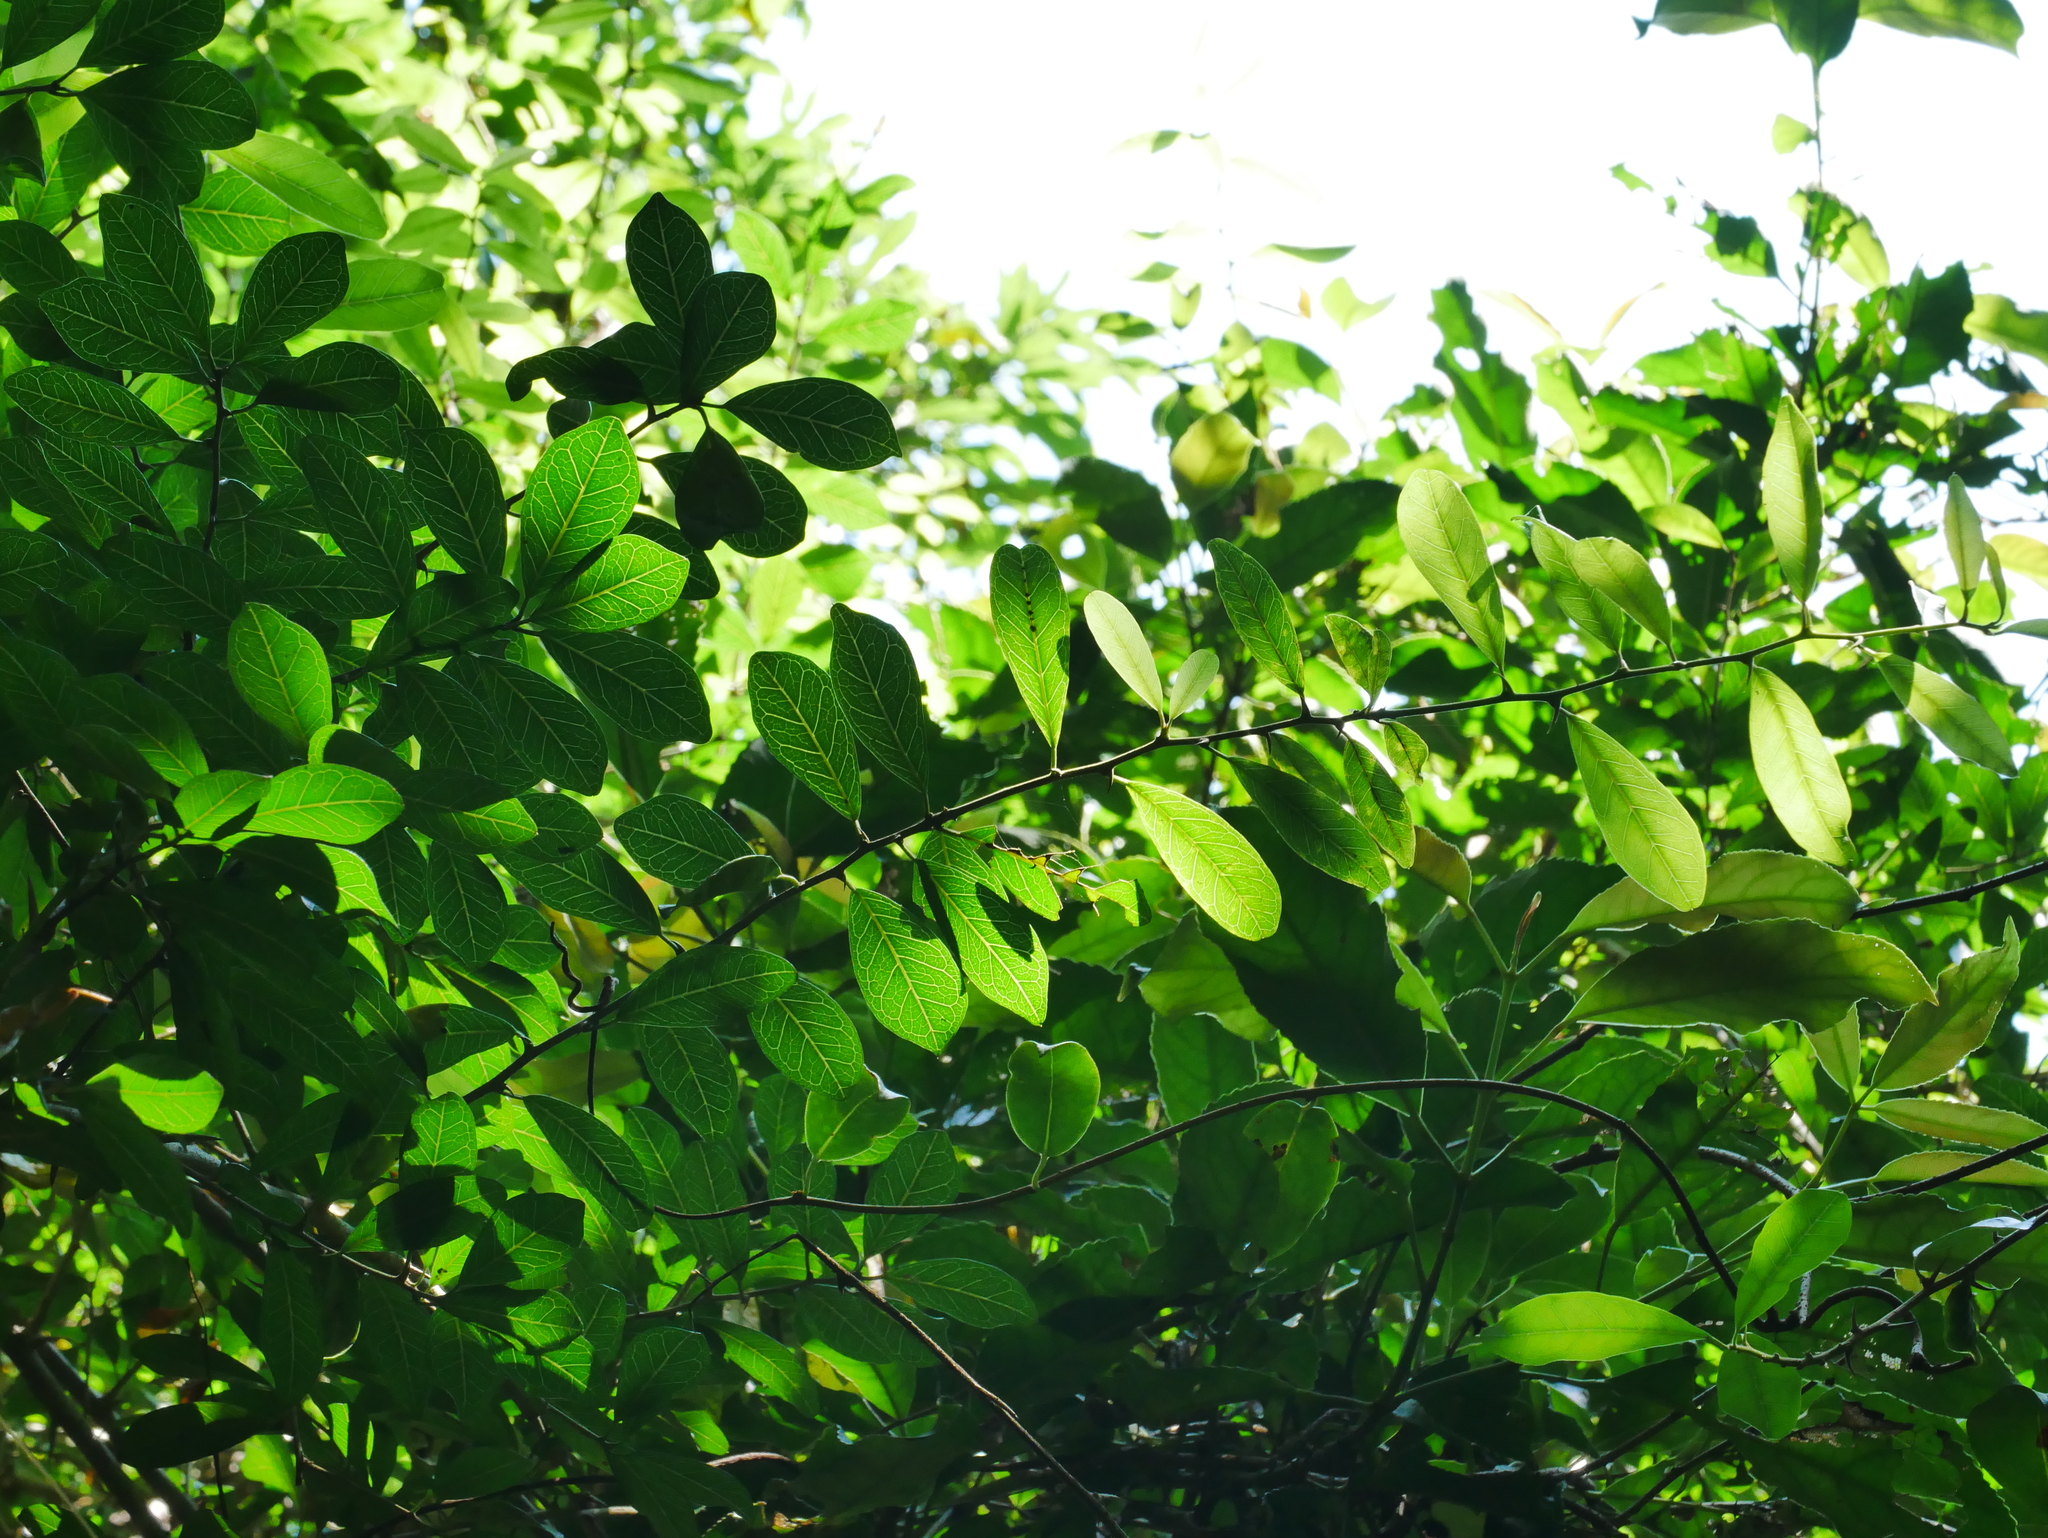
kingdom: Plantae
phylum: Tracheophyta
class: Magnoliopsida
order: Rosales
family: Moraceae
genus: Maclura
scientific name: Maclura cochinchinensis
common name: Cockspurthorn
